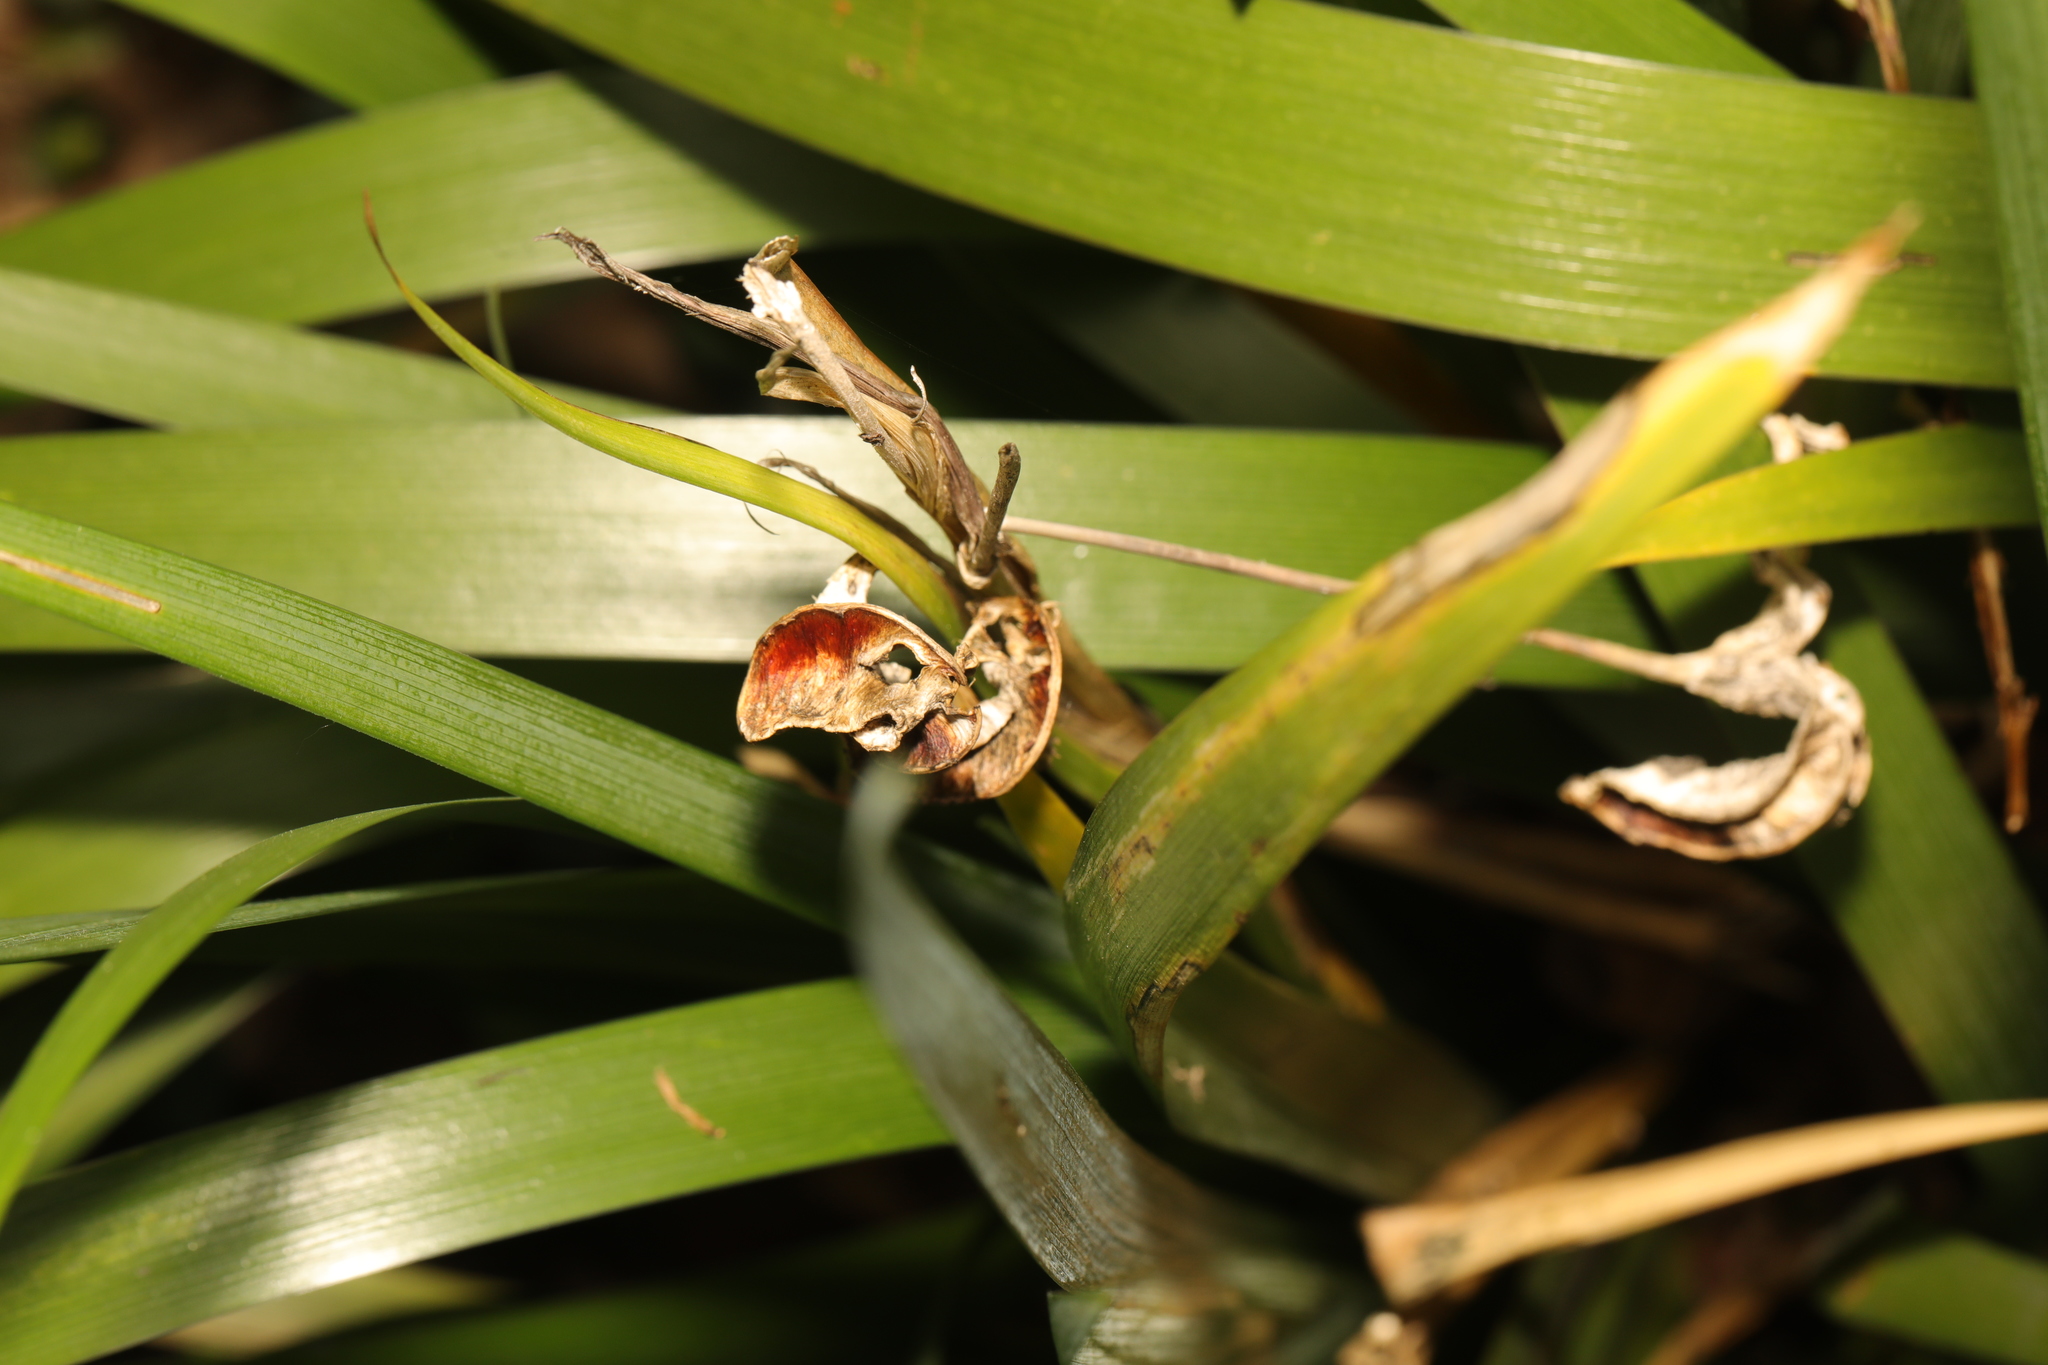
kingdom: Plantae
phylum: Tracheophyta
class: Liliopsida
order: Asparagales
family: Iridaceae
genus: Iris
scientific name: Iris foetidissima
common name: Stinking iris
